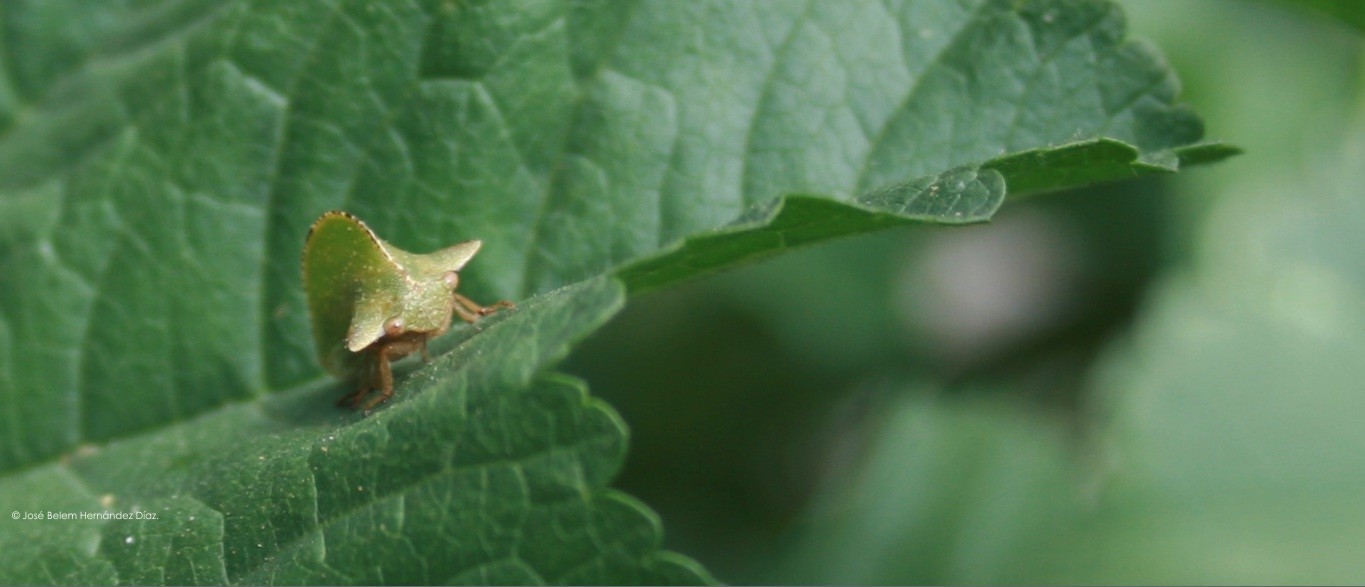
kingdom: Animalia
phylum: Arthropoda
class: Insecta
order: Hemiptera
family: Membracidae
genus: Antianthe
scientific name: Antianthe expansa
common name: Keeled tree hopper
